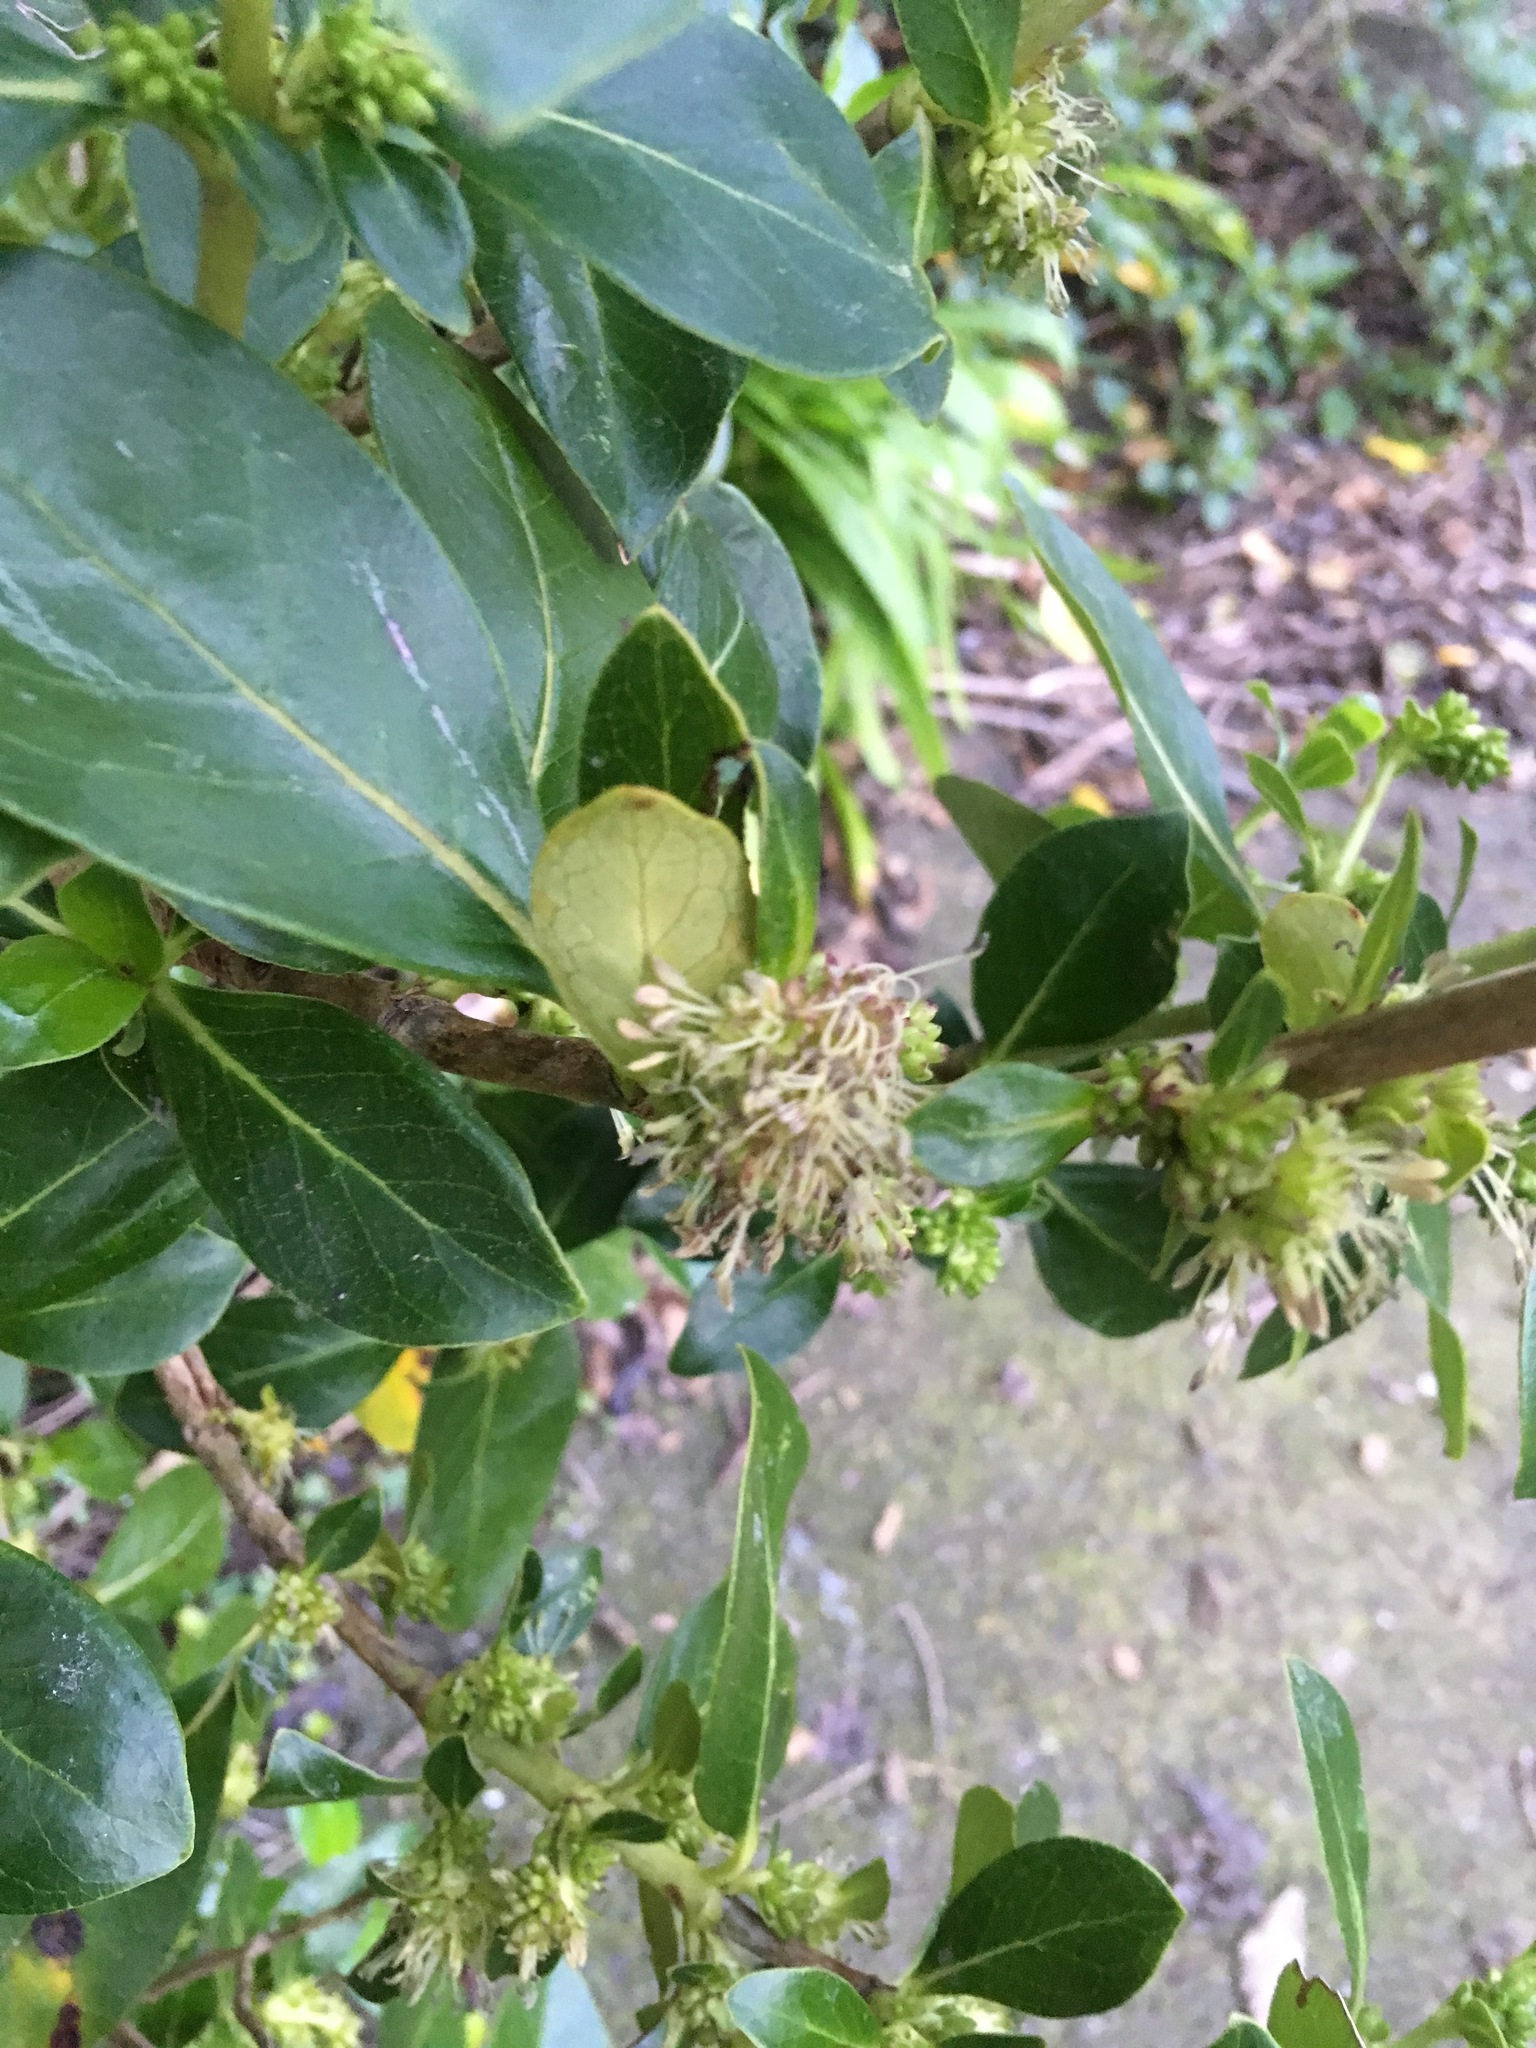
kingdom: Plantae
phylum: Tracheophyta
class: Magnoliopsida
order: Gentianales
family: Rubiaceae
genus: Coprosma
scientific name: Coprosma robusta
